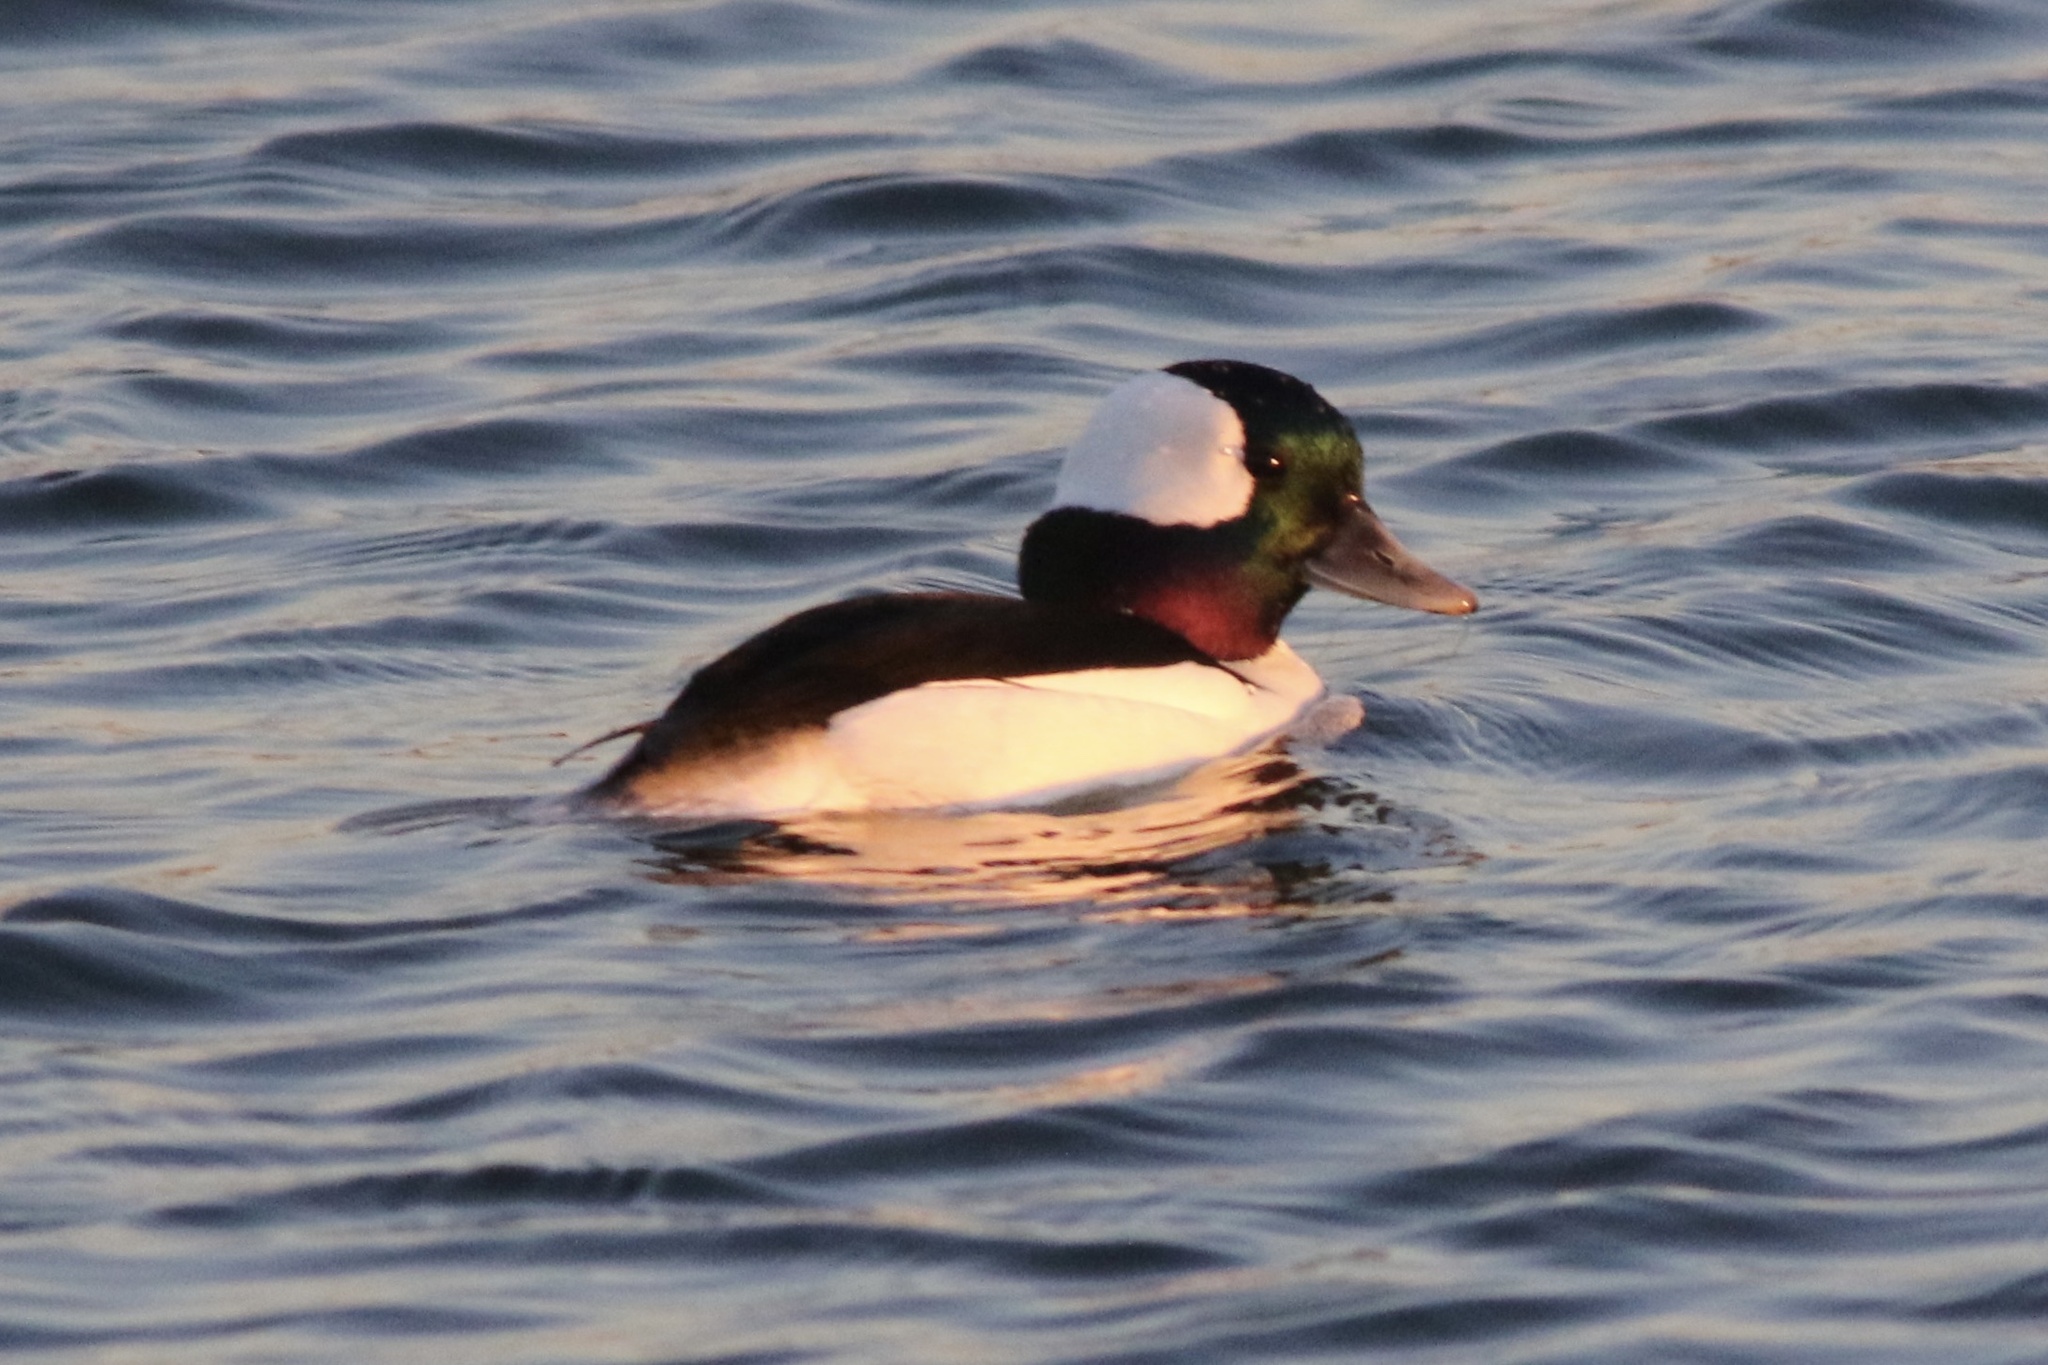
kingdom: Animalia
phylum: Chordata
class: Aves
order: Anseriformes
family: Anatidae
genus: Bucephala
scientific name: Bucephala albeola
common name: Bufflehead
